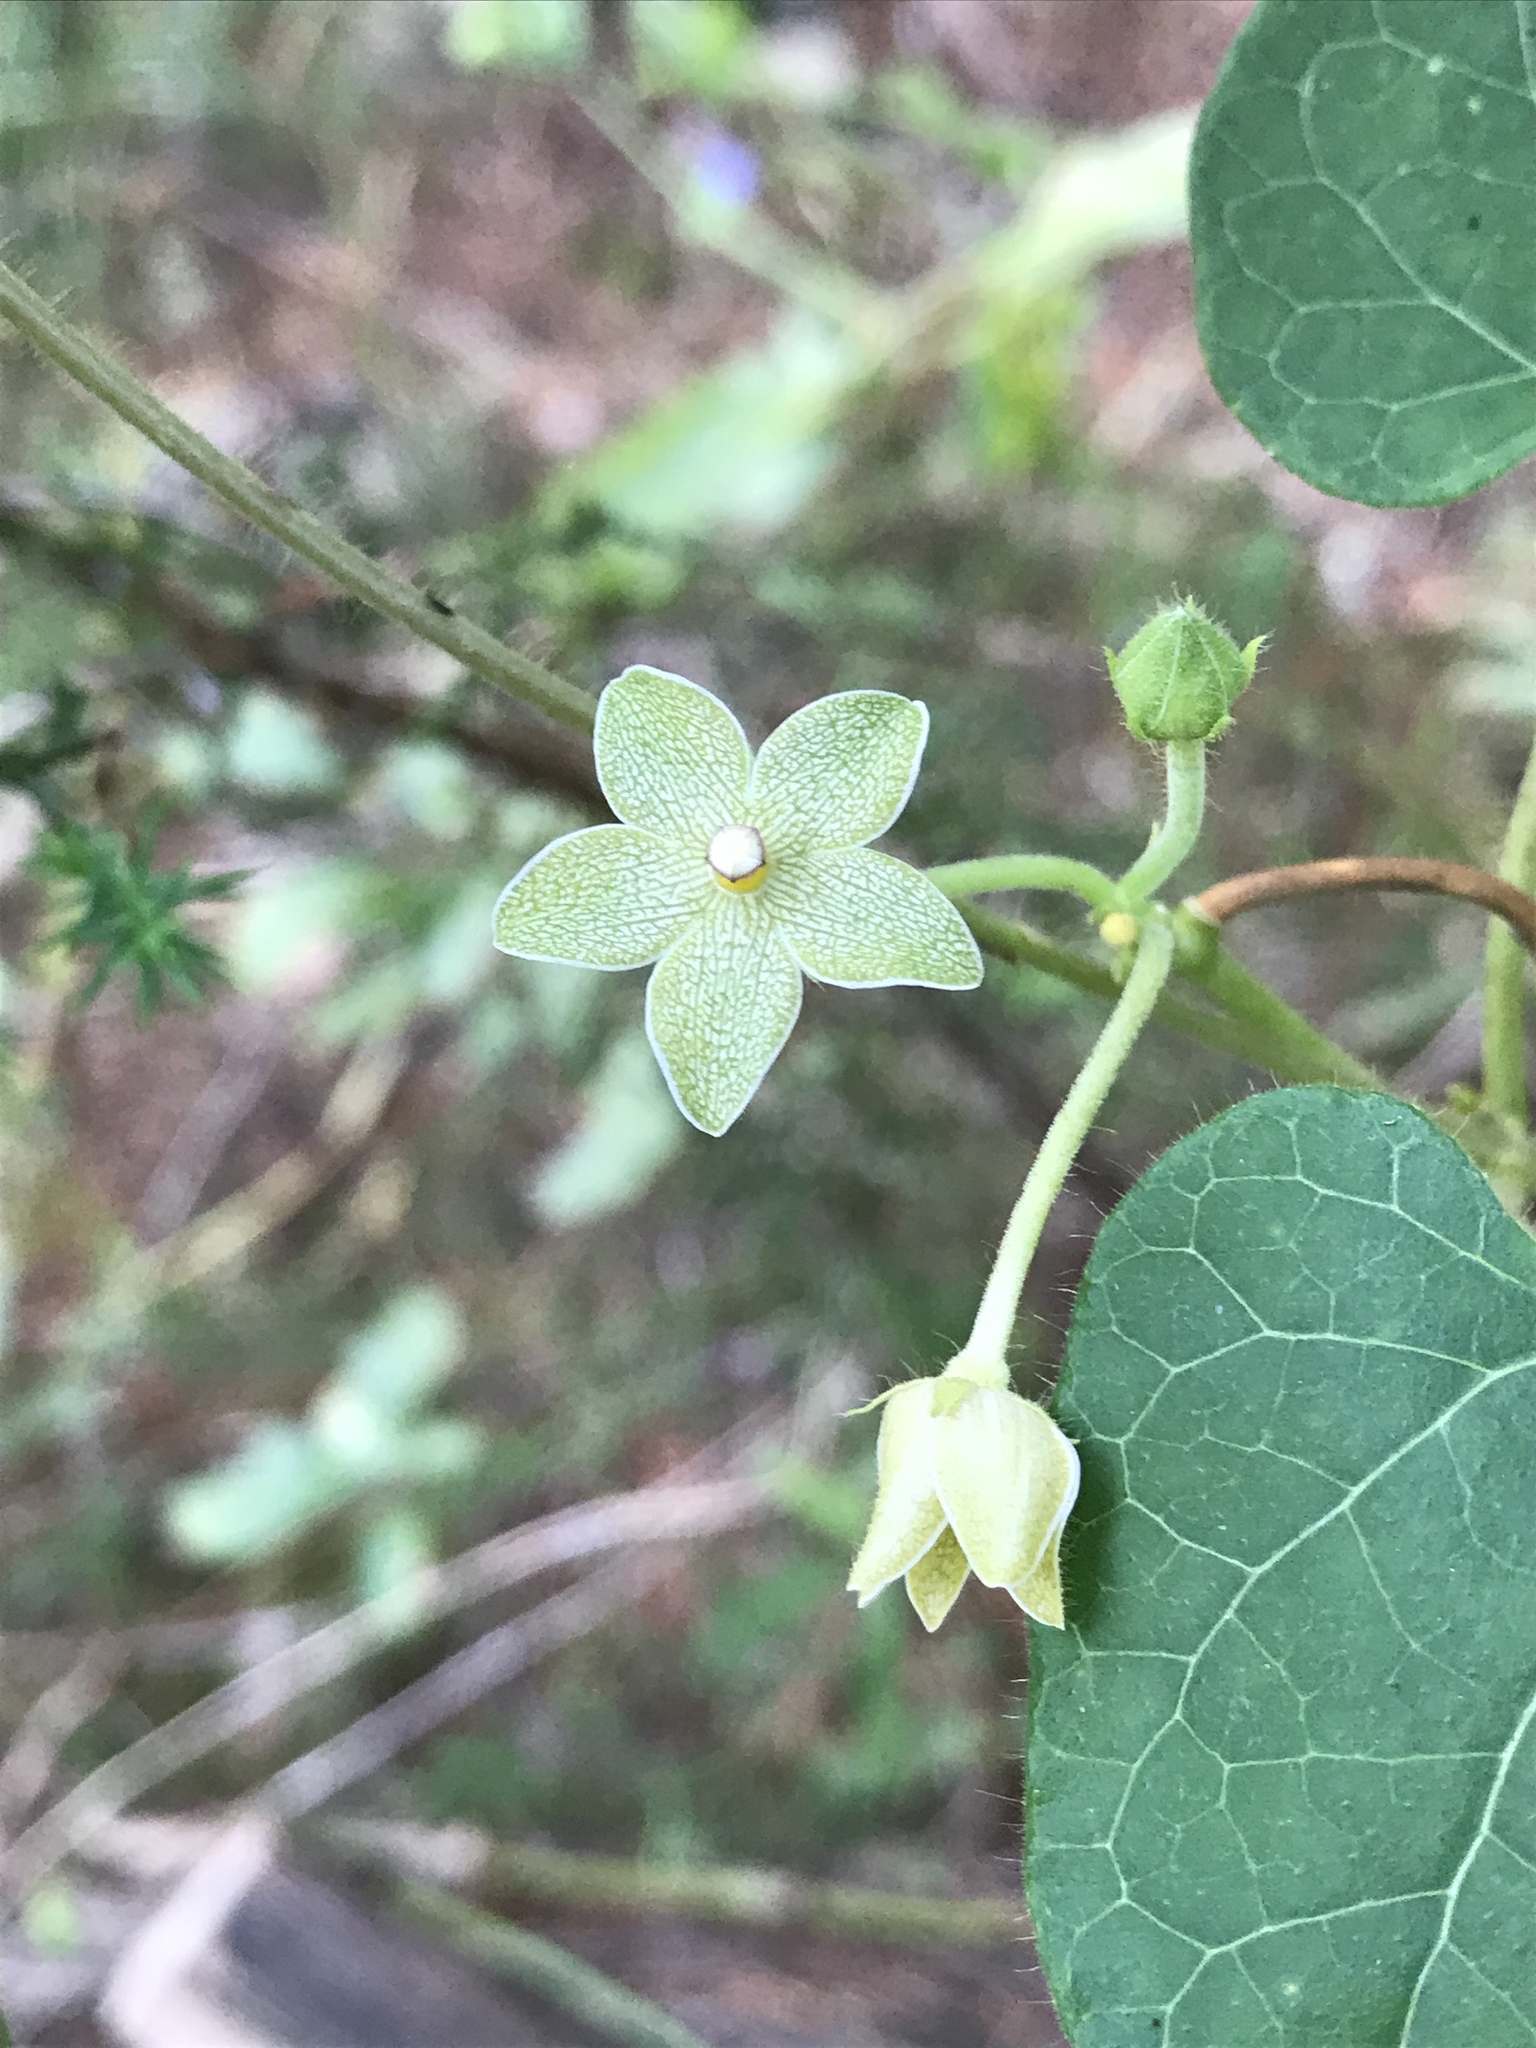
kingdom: Plantae
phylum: Tracheophyta
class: Magnoliopsida
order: Gentianales
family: Apocynaceae
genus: Dictyanthus
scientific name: Dictyanthus reticulatus
